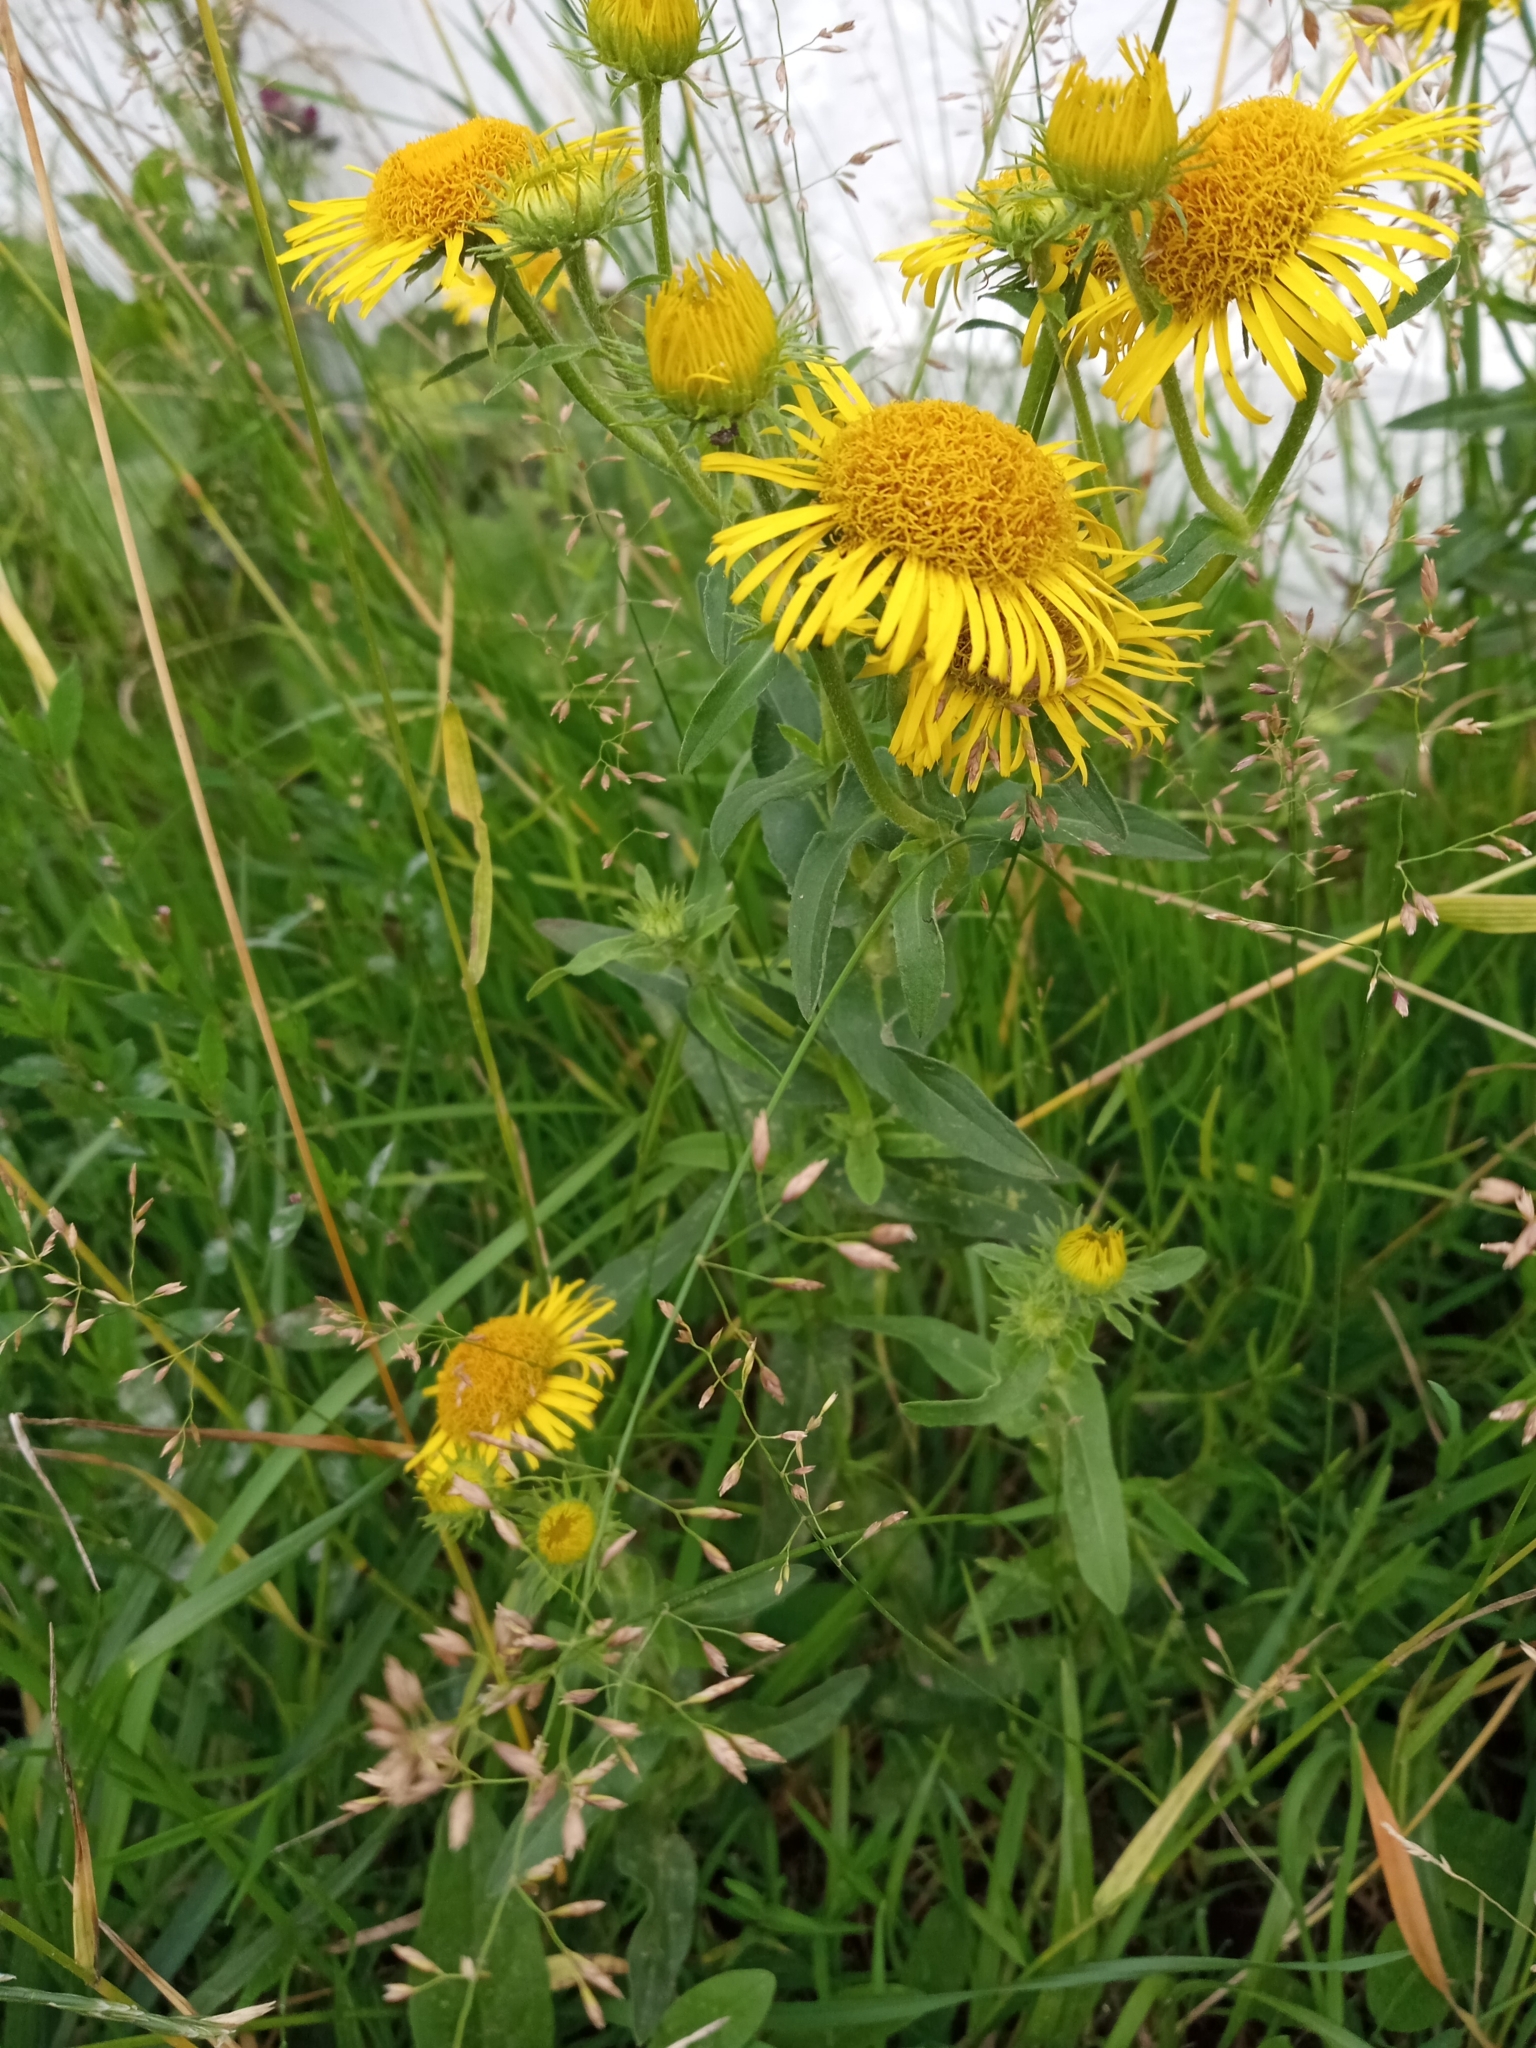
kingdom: Plantae
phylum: Tracheophyta
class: Magnoliopsida
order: Asterales
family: Asteraceae
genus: Pentanema
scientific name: Pentanema britannicum
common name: British elecampane
